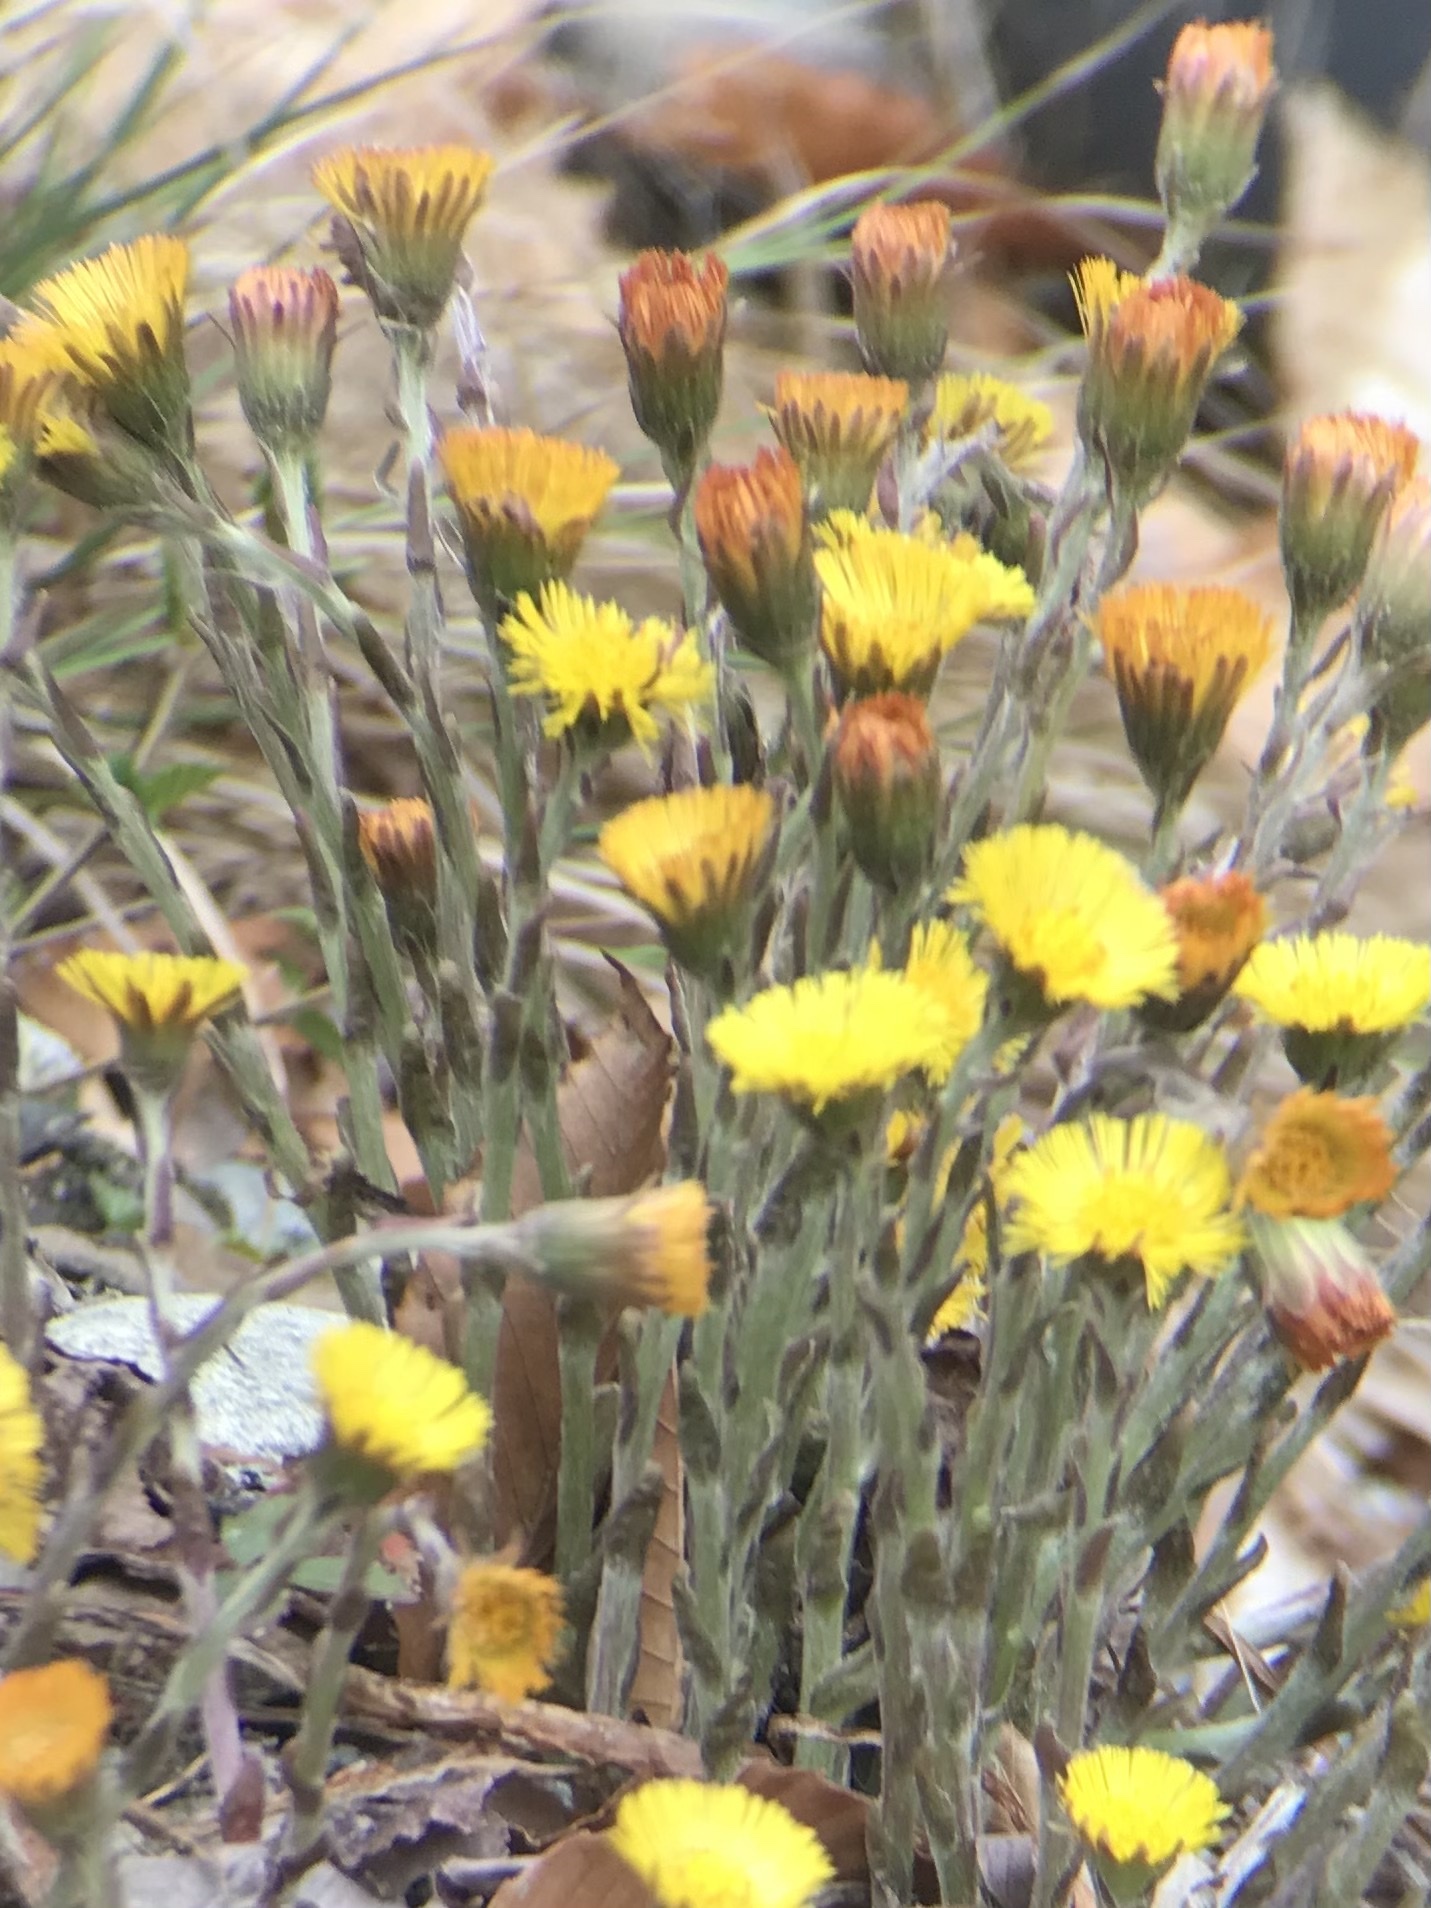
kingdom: Plantae
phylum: Tracheophyta
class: Magnoliopsida
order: Asterales
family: Asteraceae
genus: Tussilago
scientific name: Tussilago farfara
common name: Coltsfoot
